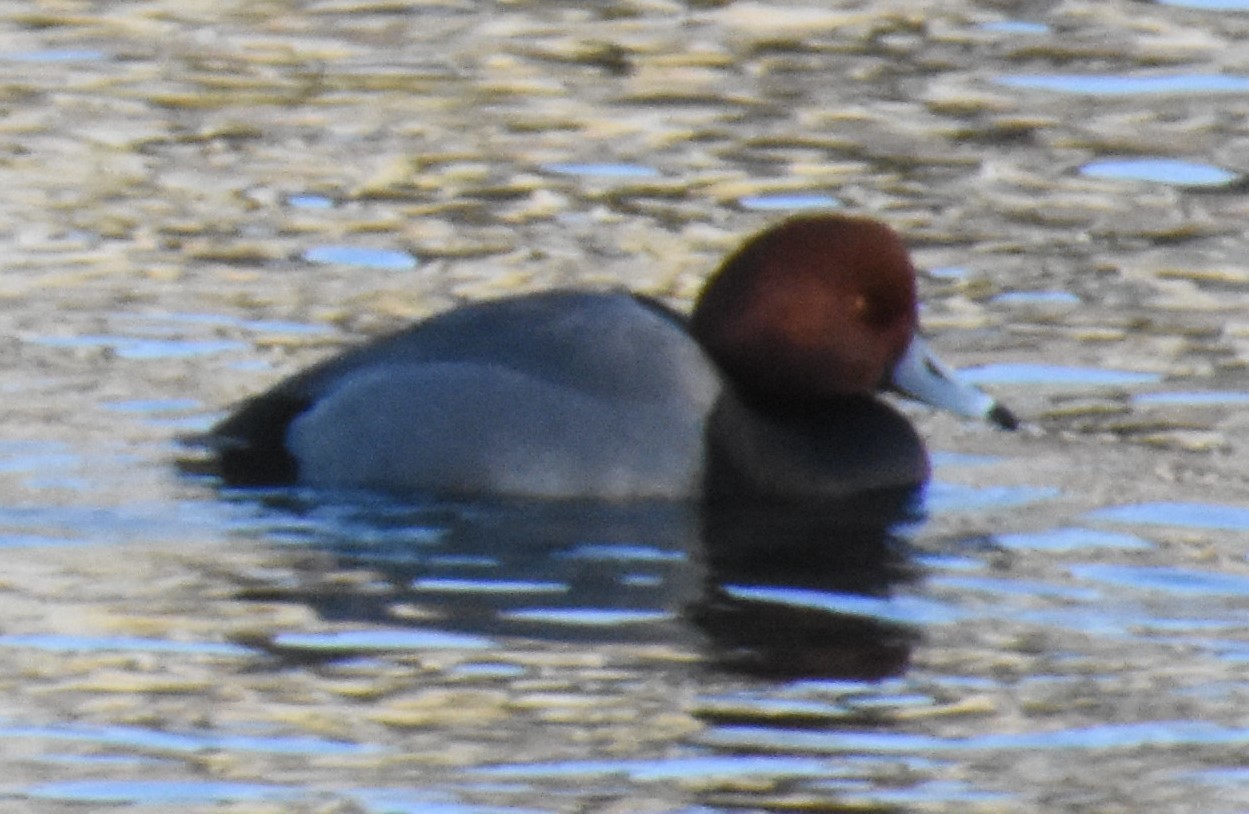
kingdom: Animalia
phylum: Chordata
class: Aves
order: Anseriformes
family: Anatidae
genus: Aythya
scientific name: Aythya americana
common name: Redhead
